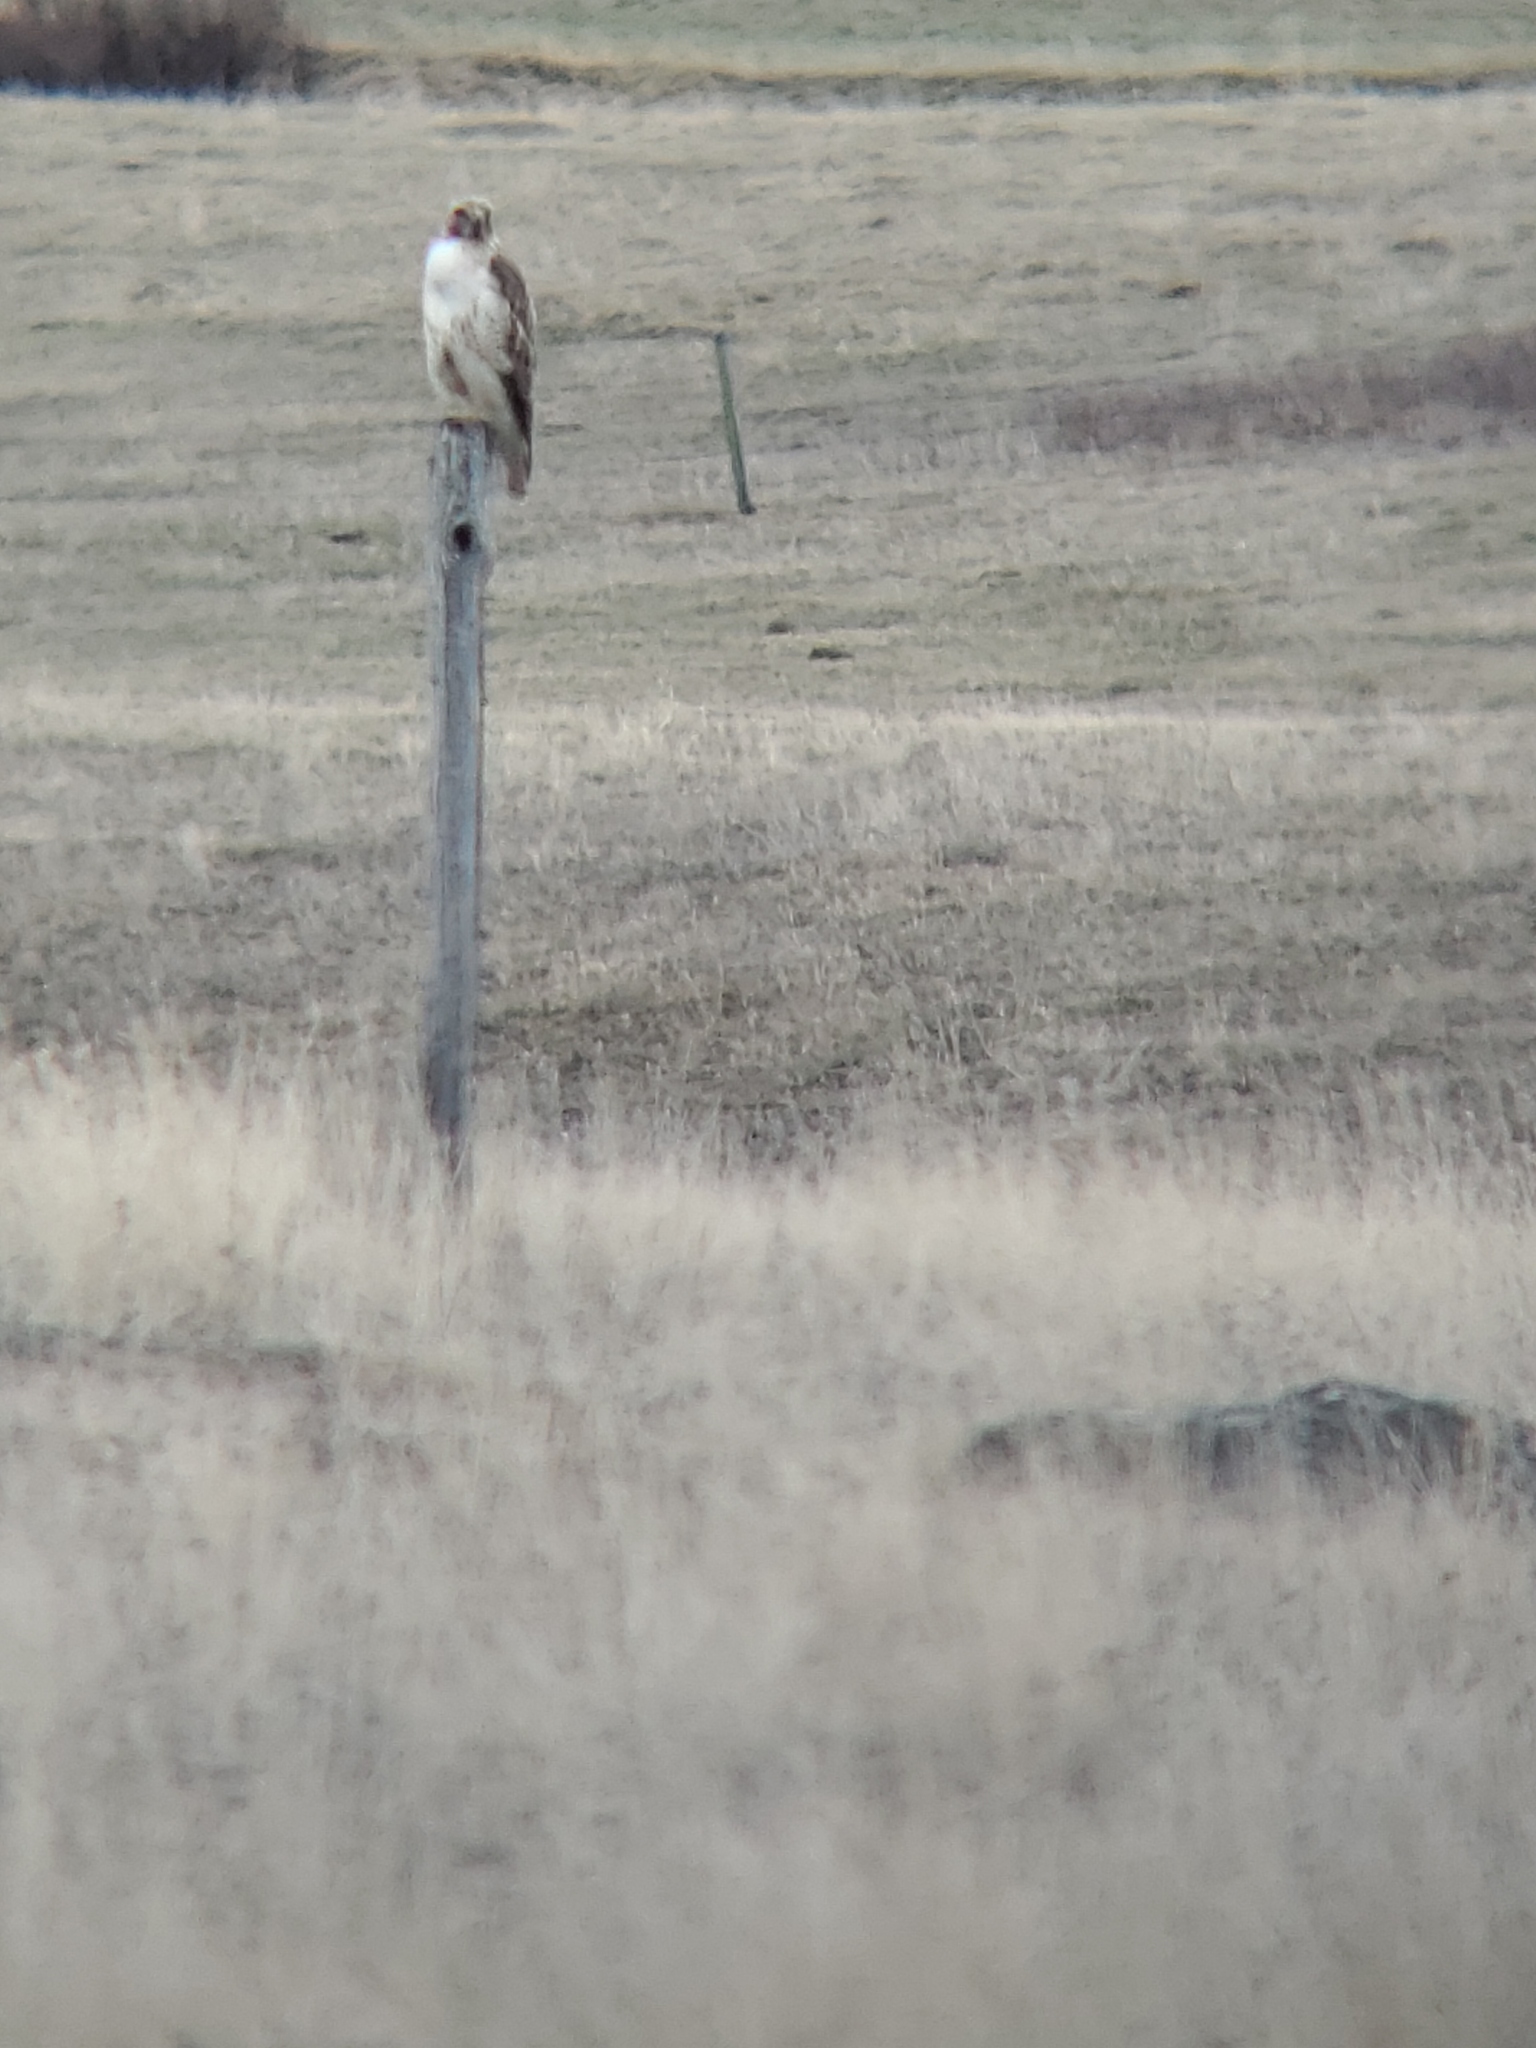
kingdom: Animalia
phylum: Chordata
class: Aves
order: Accipitriformes
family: Accipitridae
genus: Buteo
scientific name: Buteo jamaicensis
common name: Red-tailed hawk
